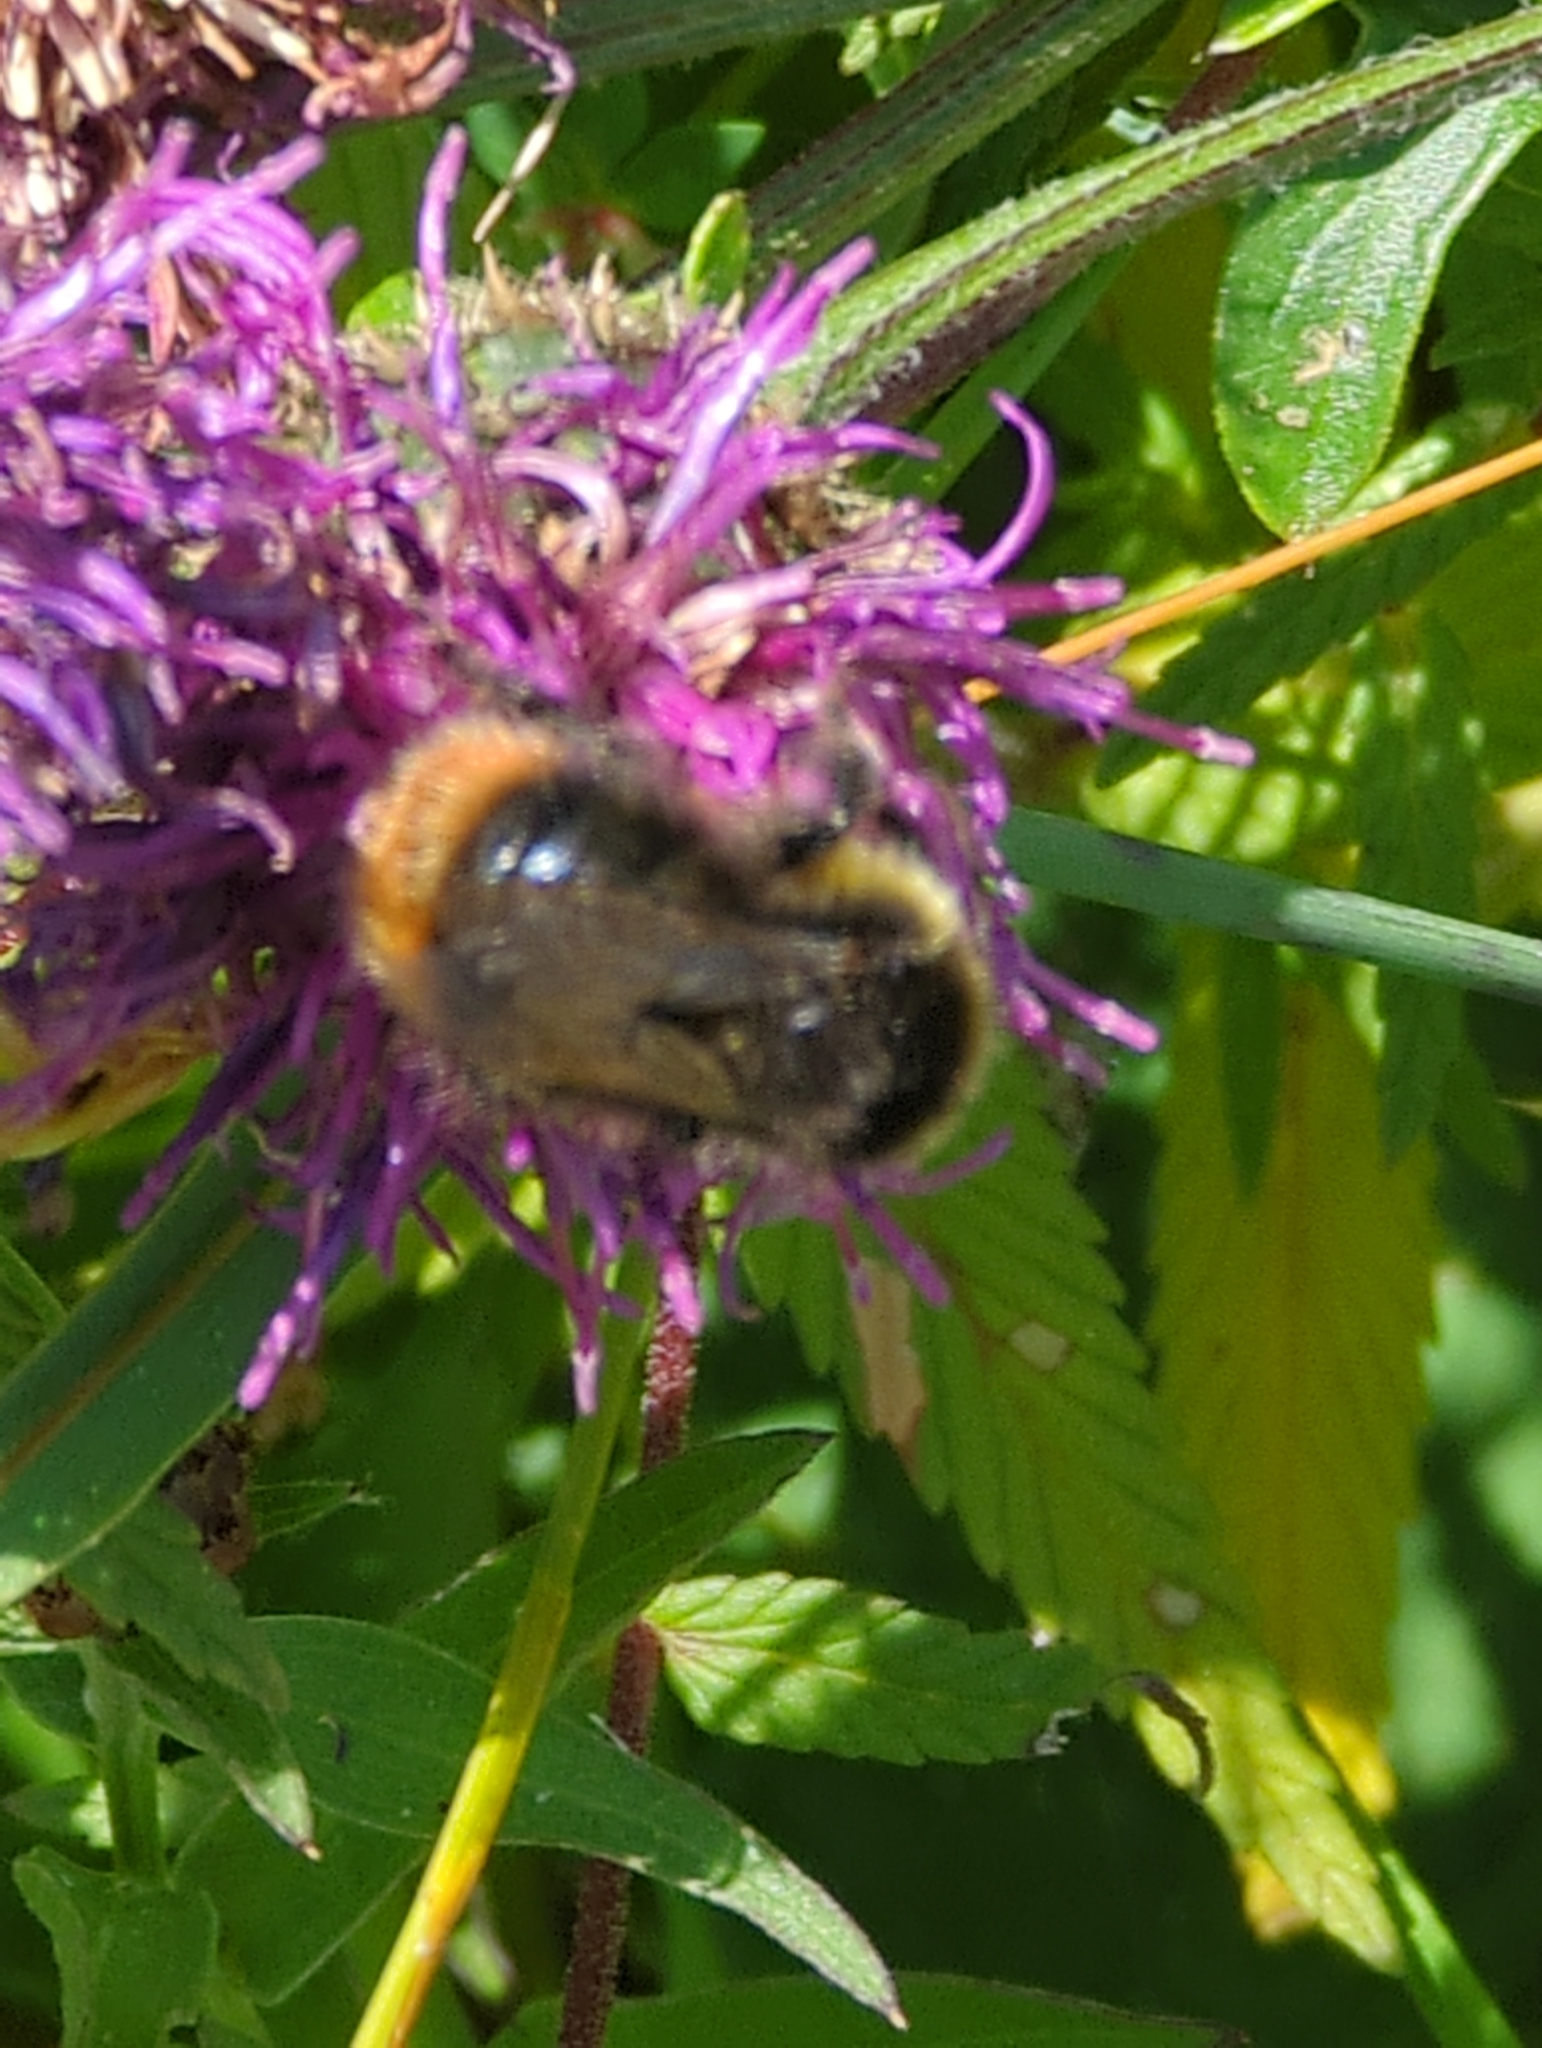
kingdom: Animalia
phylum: Arthropoda
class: Insecta
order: Hymenoptera
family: Apidae
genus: Bombus
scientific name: Bombus pratorum
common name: Early humble-bee
